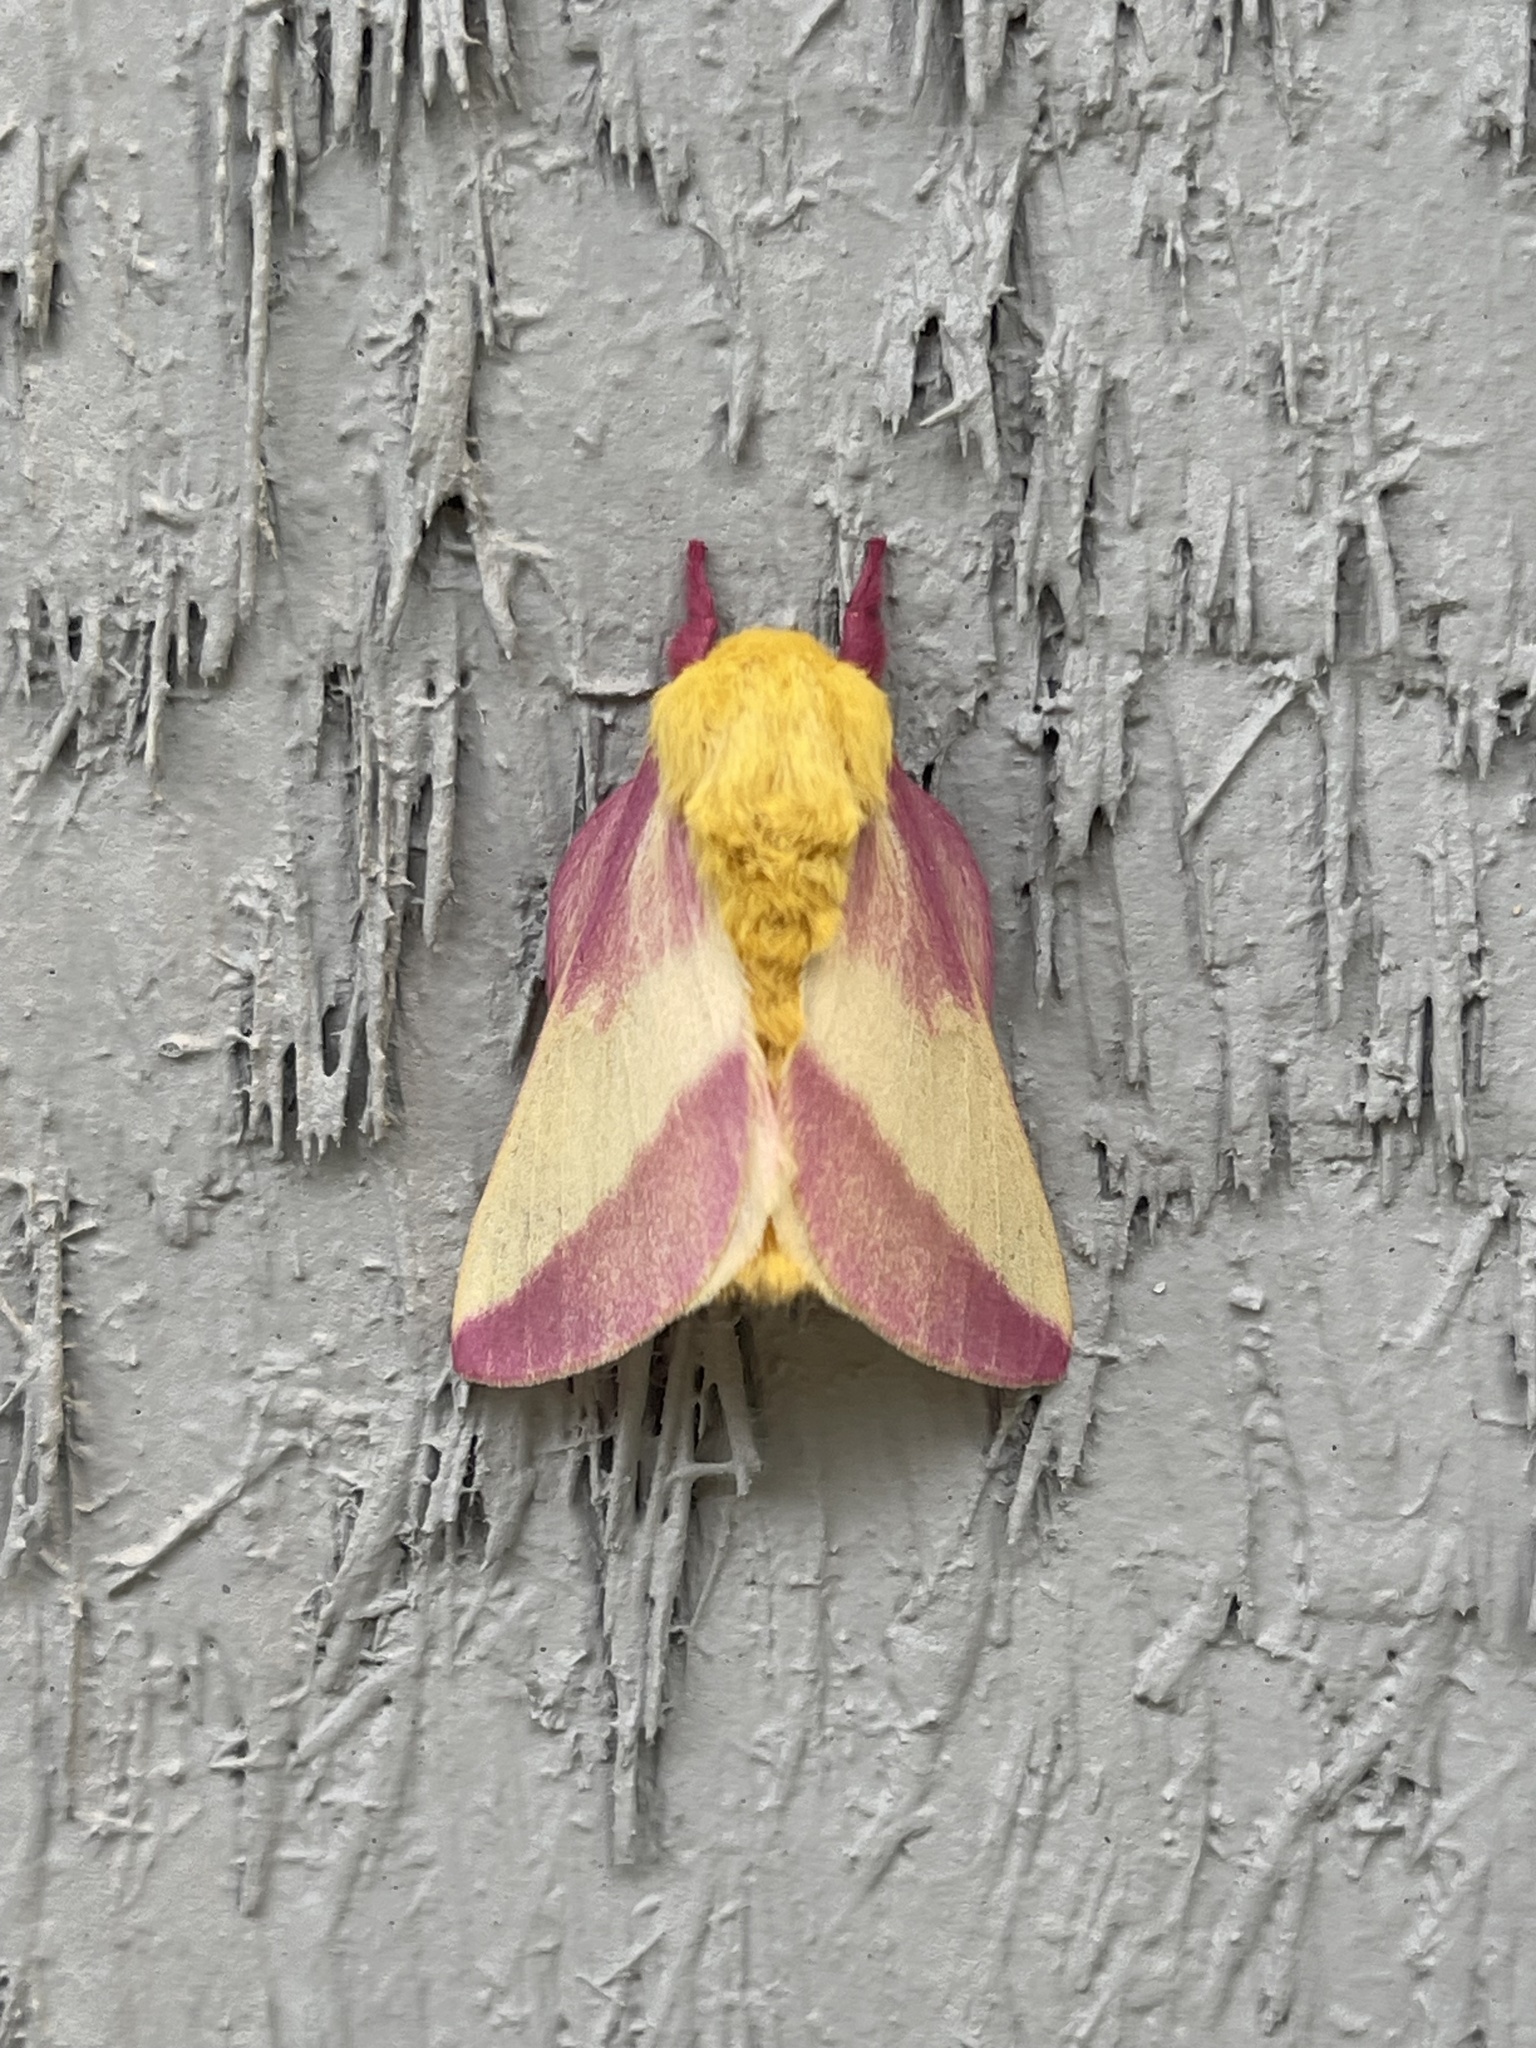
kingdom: Animalia
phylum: Arthropoda
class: Insecta
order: Lepidoptera
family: Saturniidae
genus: Dryocampa
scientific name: Dryocampa rubicunda
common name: Rosy maple moth
